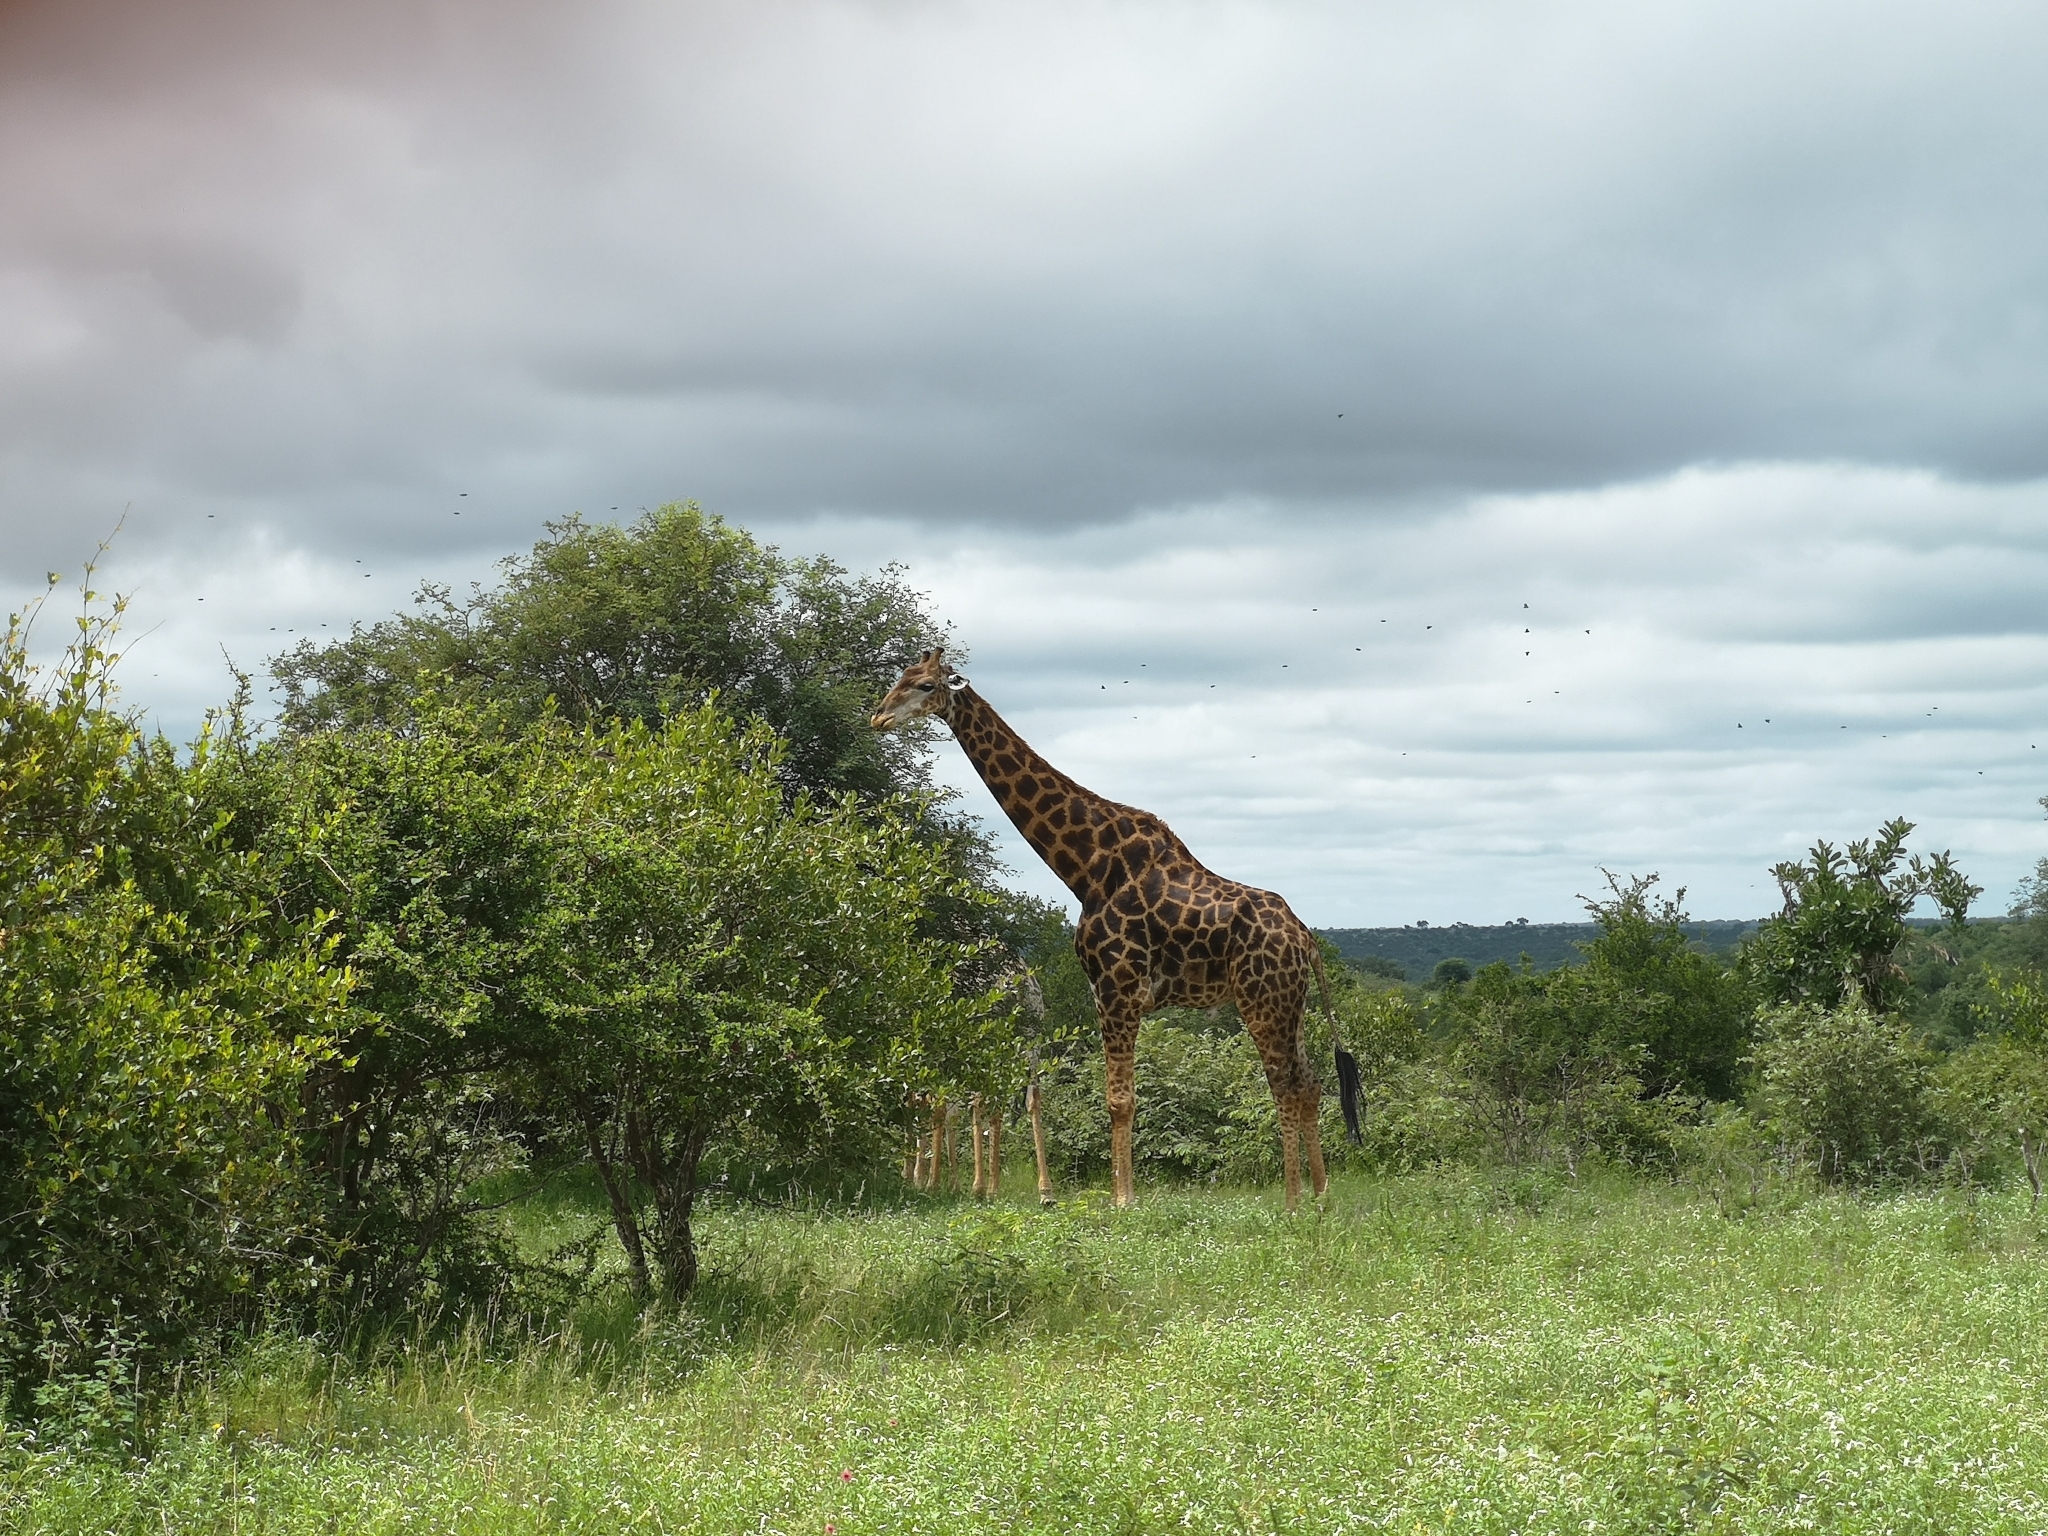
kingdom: Animalia
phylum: Chordata
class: Mammalia
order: Artiodactyla
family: Giraffidae
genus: Giraffa
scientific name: Giraffa giraffa
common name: Southern giraffe
